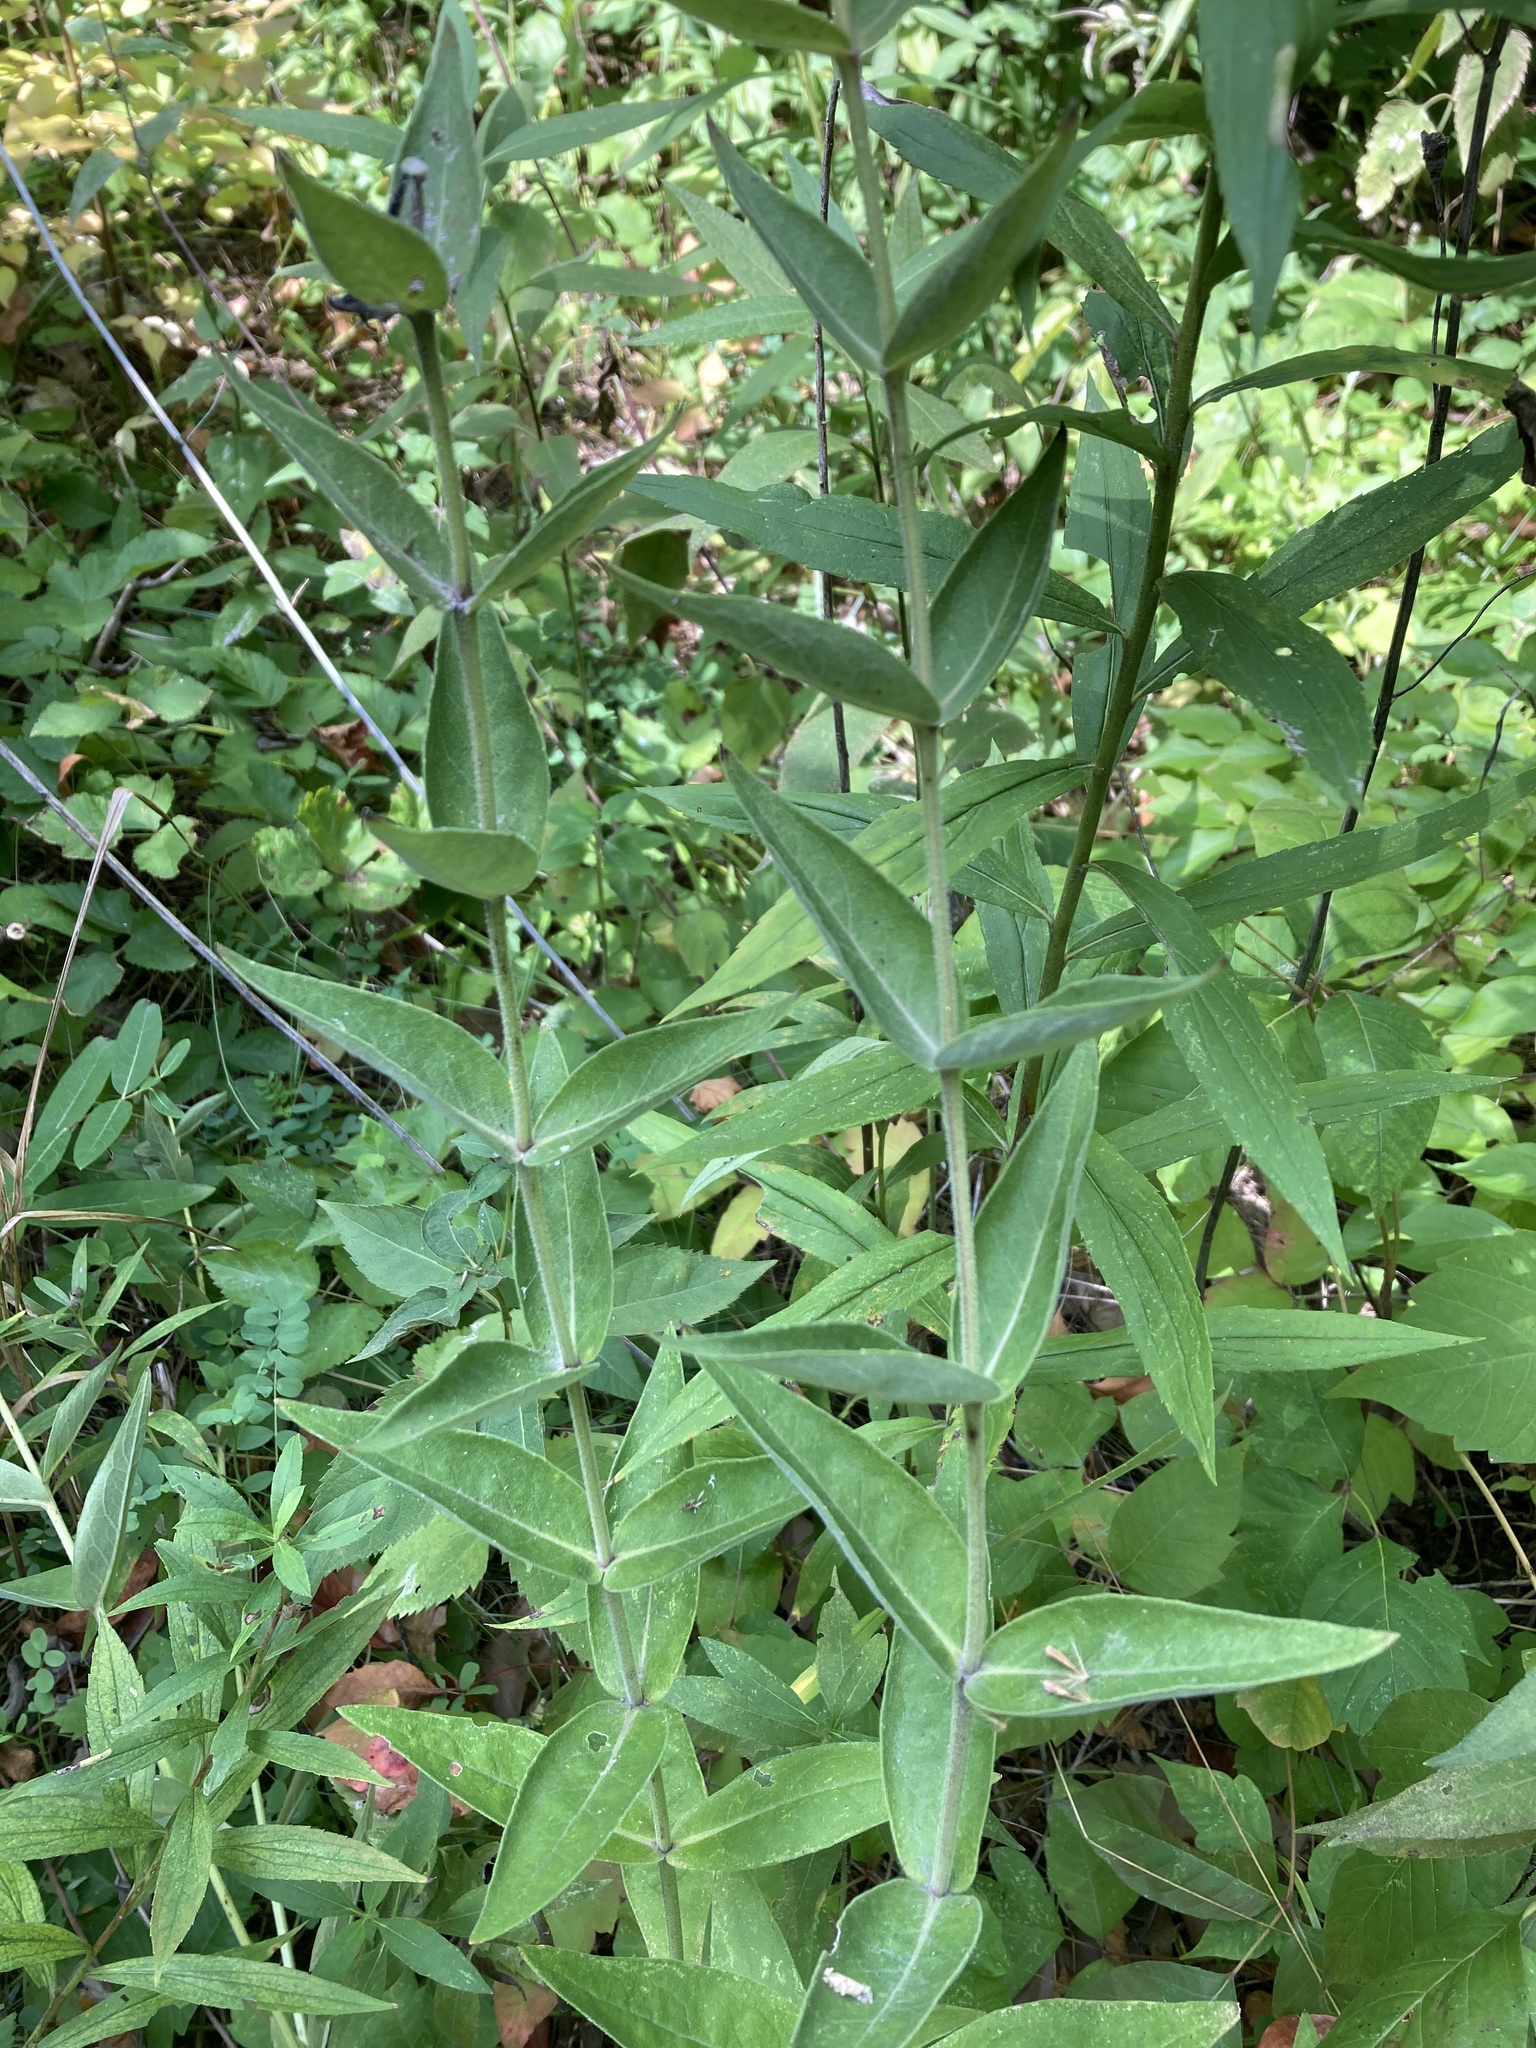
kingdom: Plantae
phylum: Tracheophyta
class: Magnoliopsida
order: Asterales
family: Asteraceae
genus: Silphium
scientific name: Silphium integrifolium
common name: Whole-leaf rosinweed
